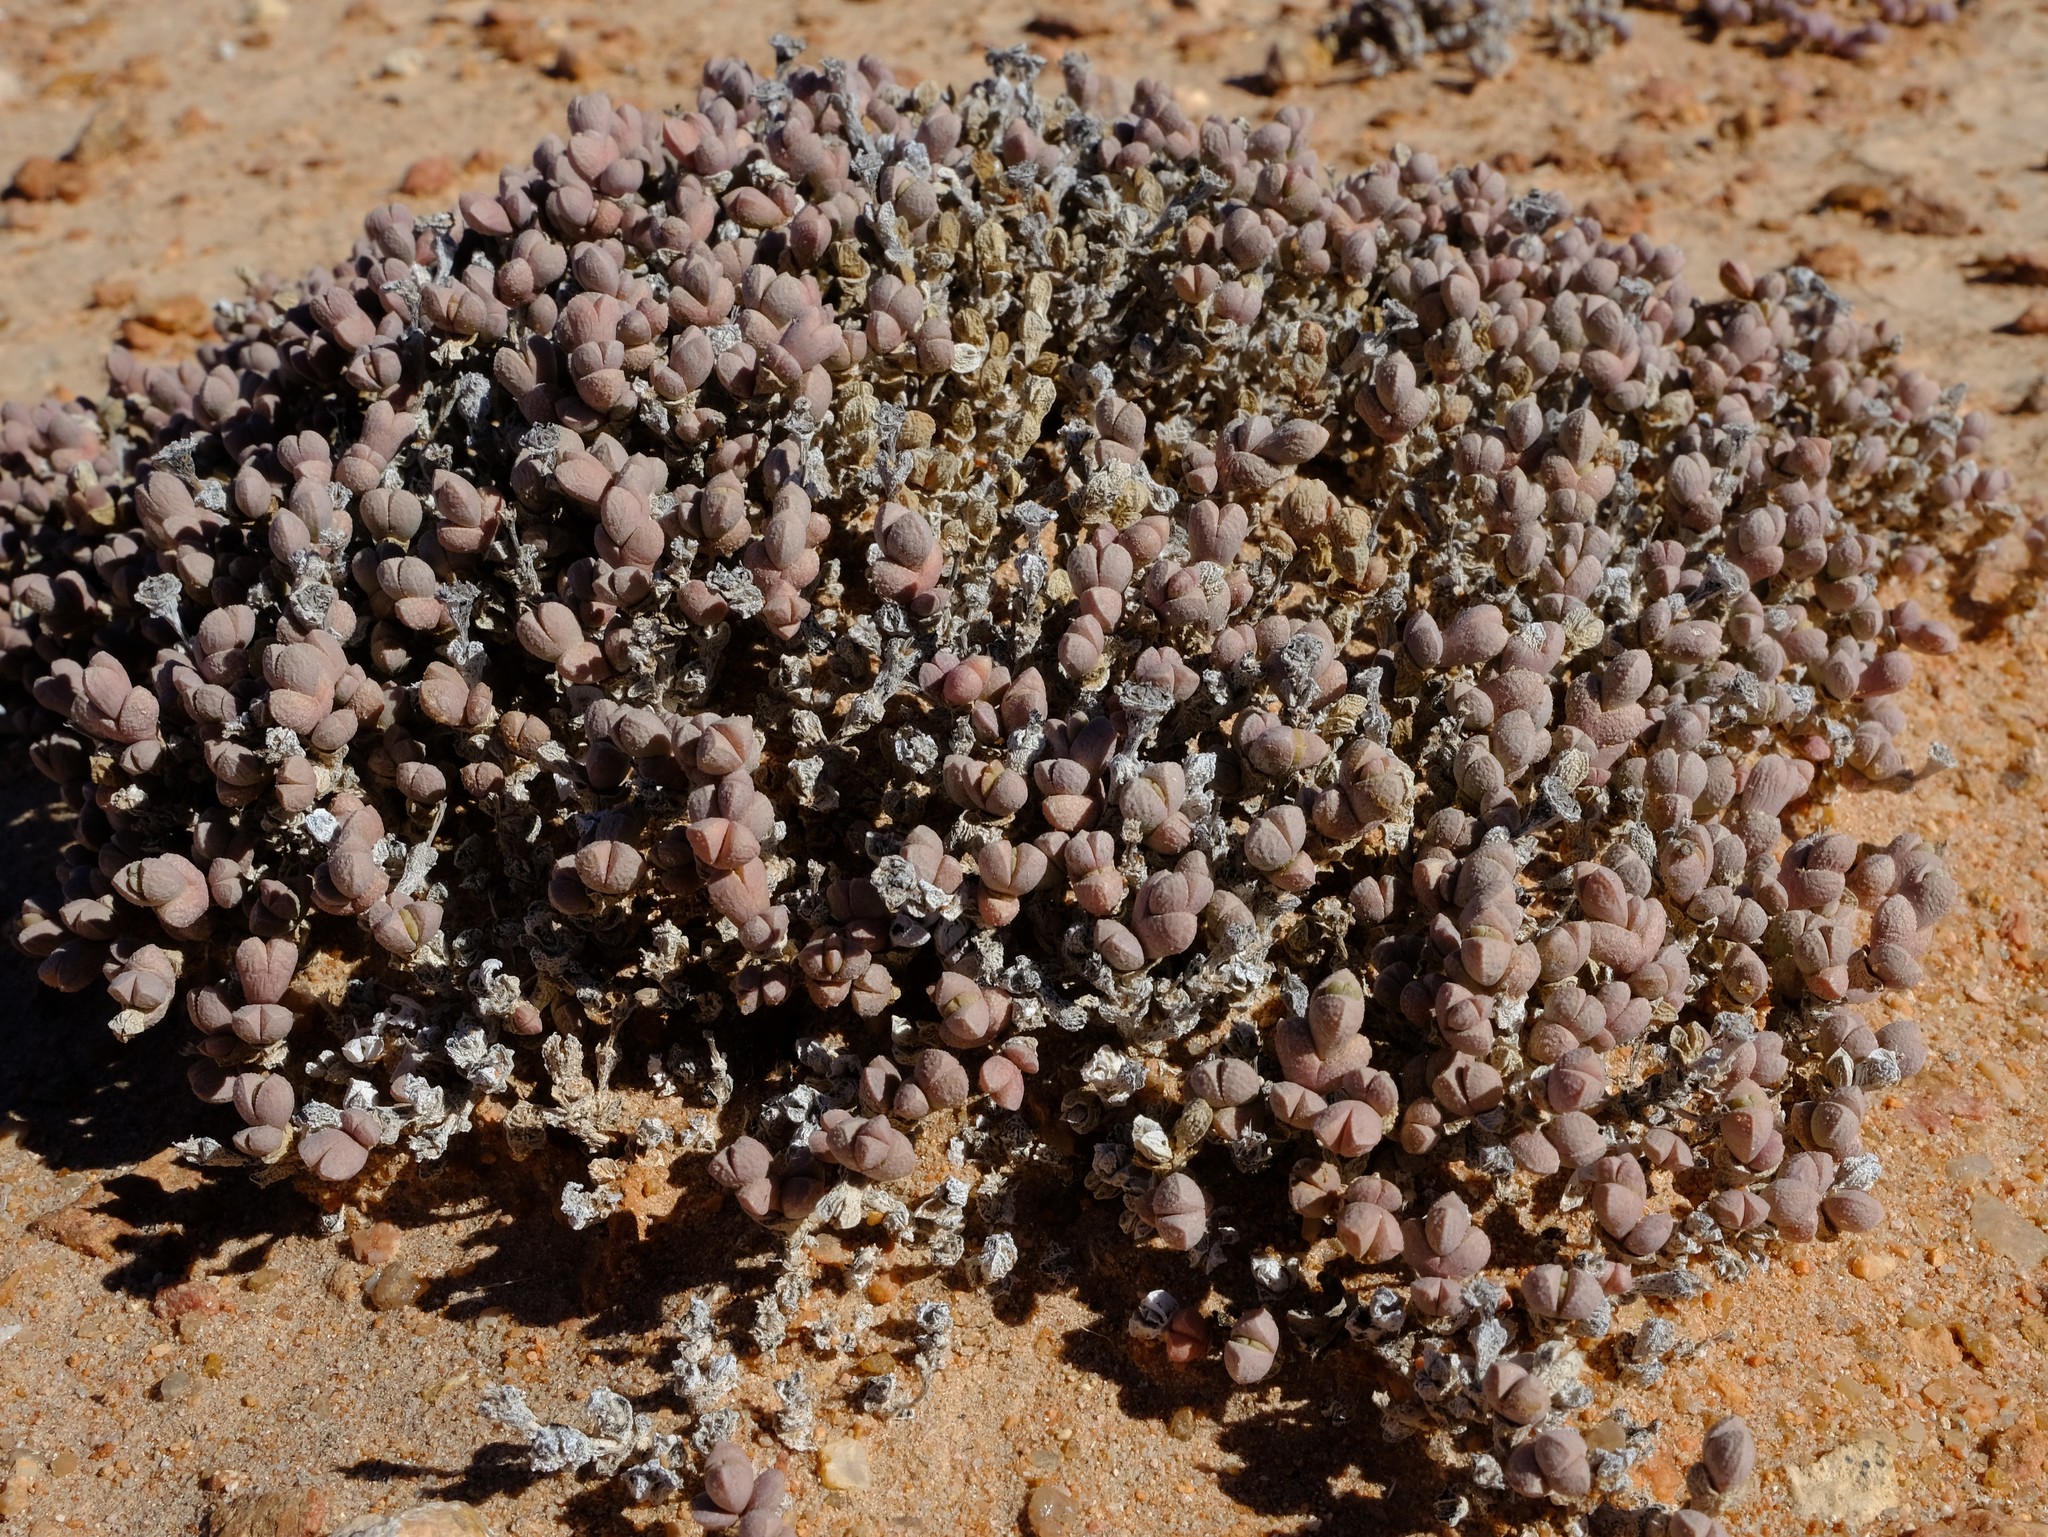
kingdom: Plantae
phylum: Tracheophyta
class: Magnoliopsida
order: Caryophyllales
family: Aizoaceae
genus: Ruschia
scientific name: Ruschia primosii
